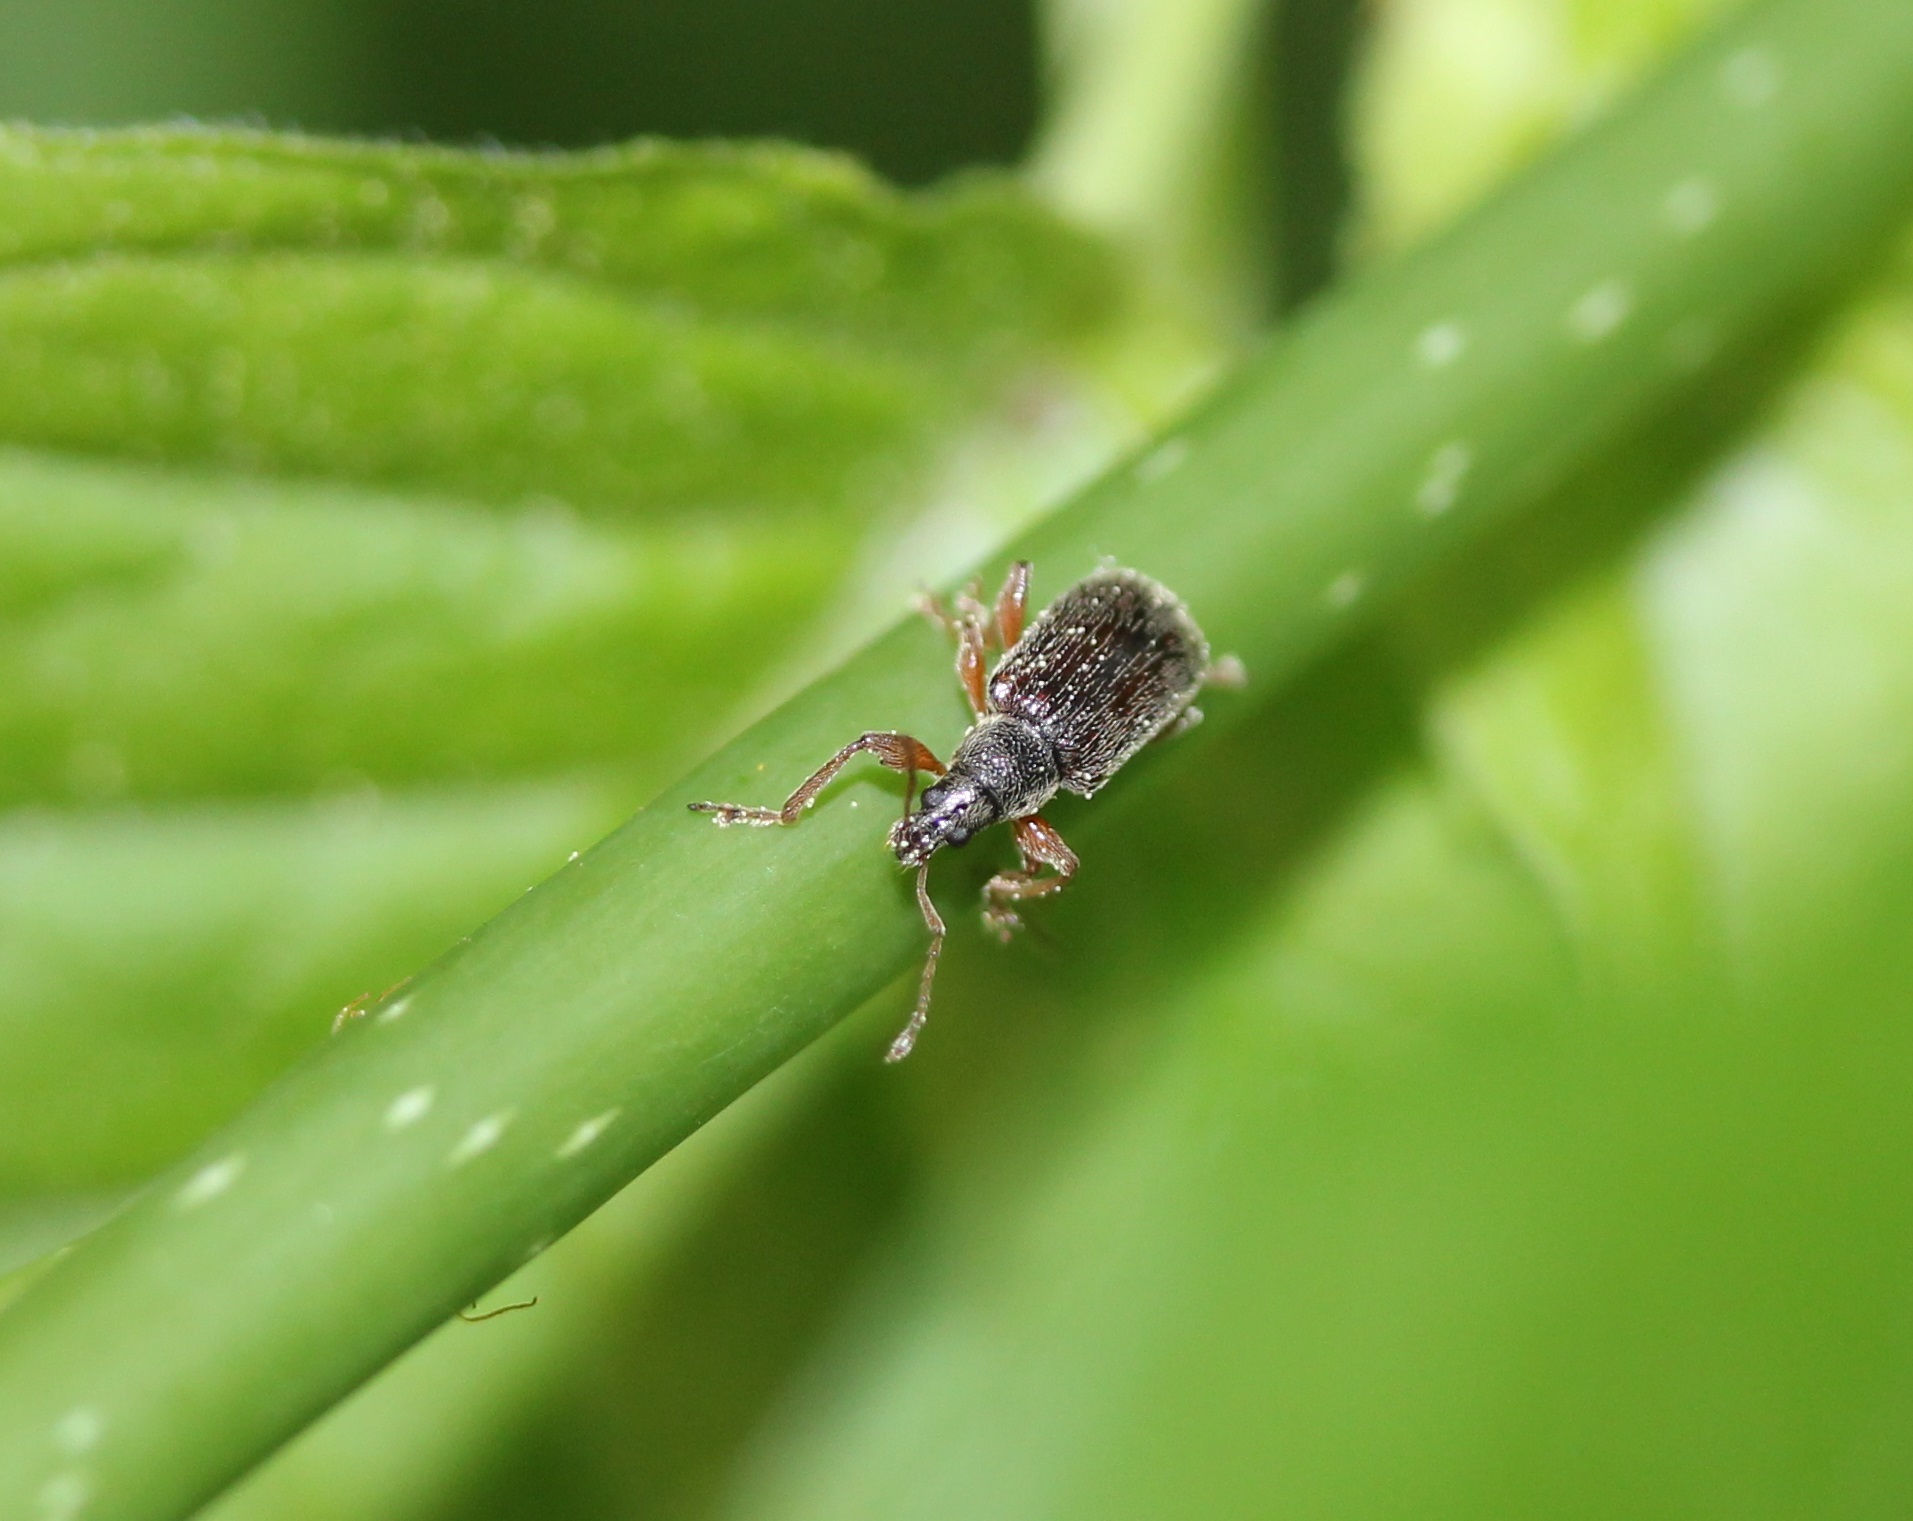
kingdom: Animalia
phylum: Arthropoda
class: Insecta
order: Coleoptera
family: Curculionidae
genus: Phyllobius
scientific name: Phyllobius oblongus
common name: Brown leaf weevil
